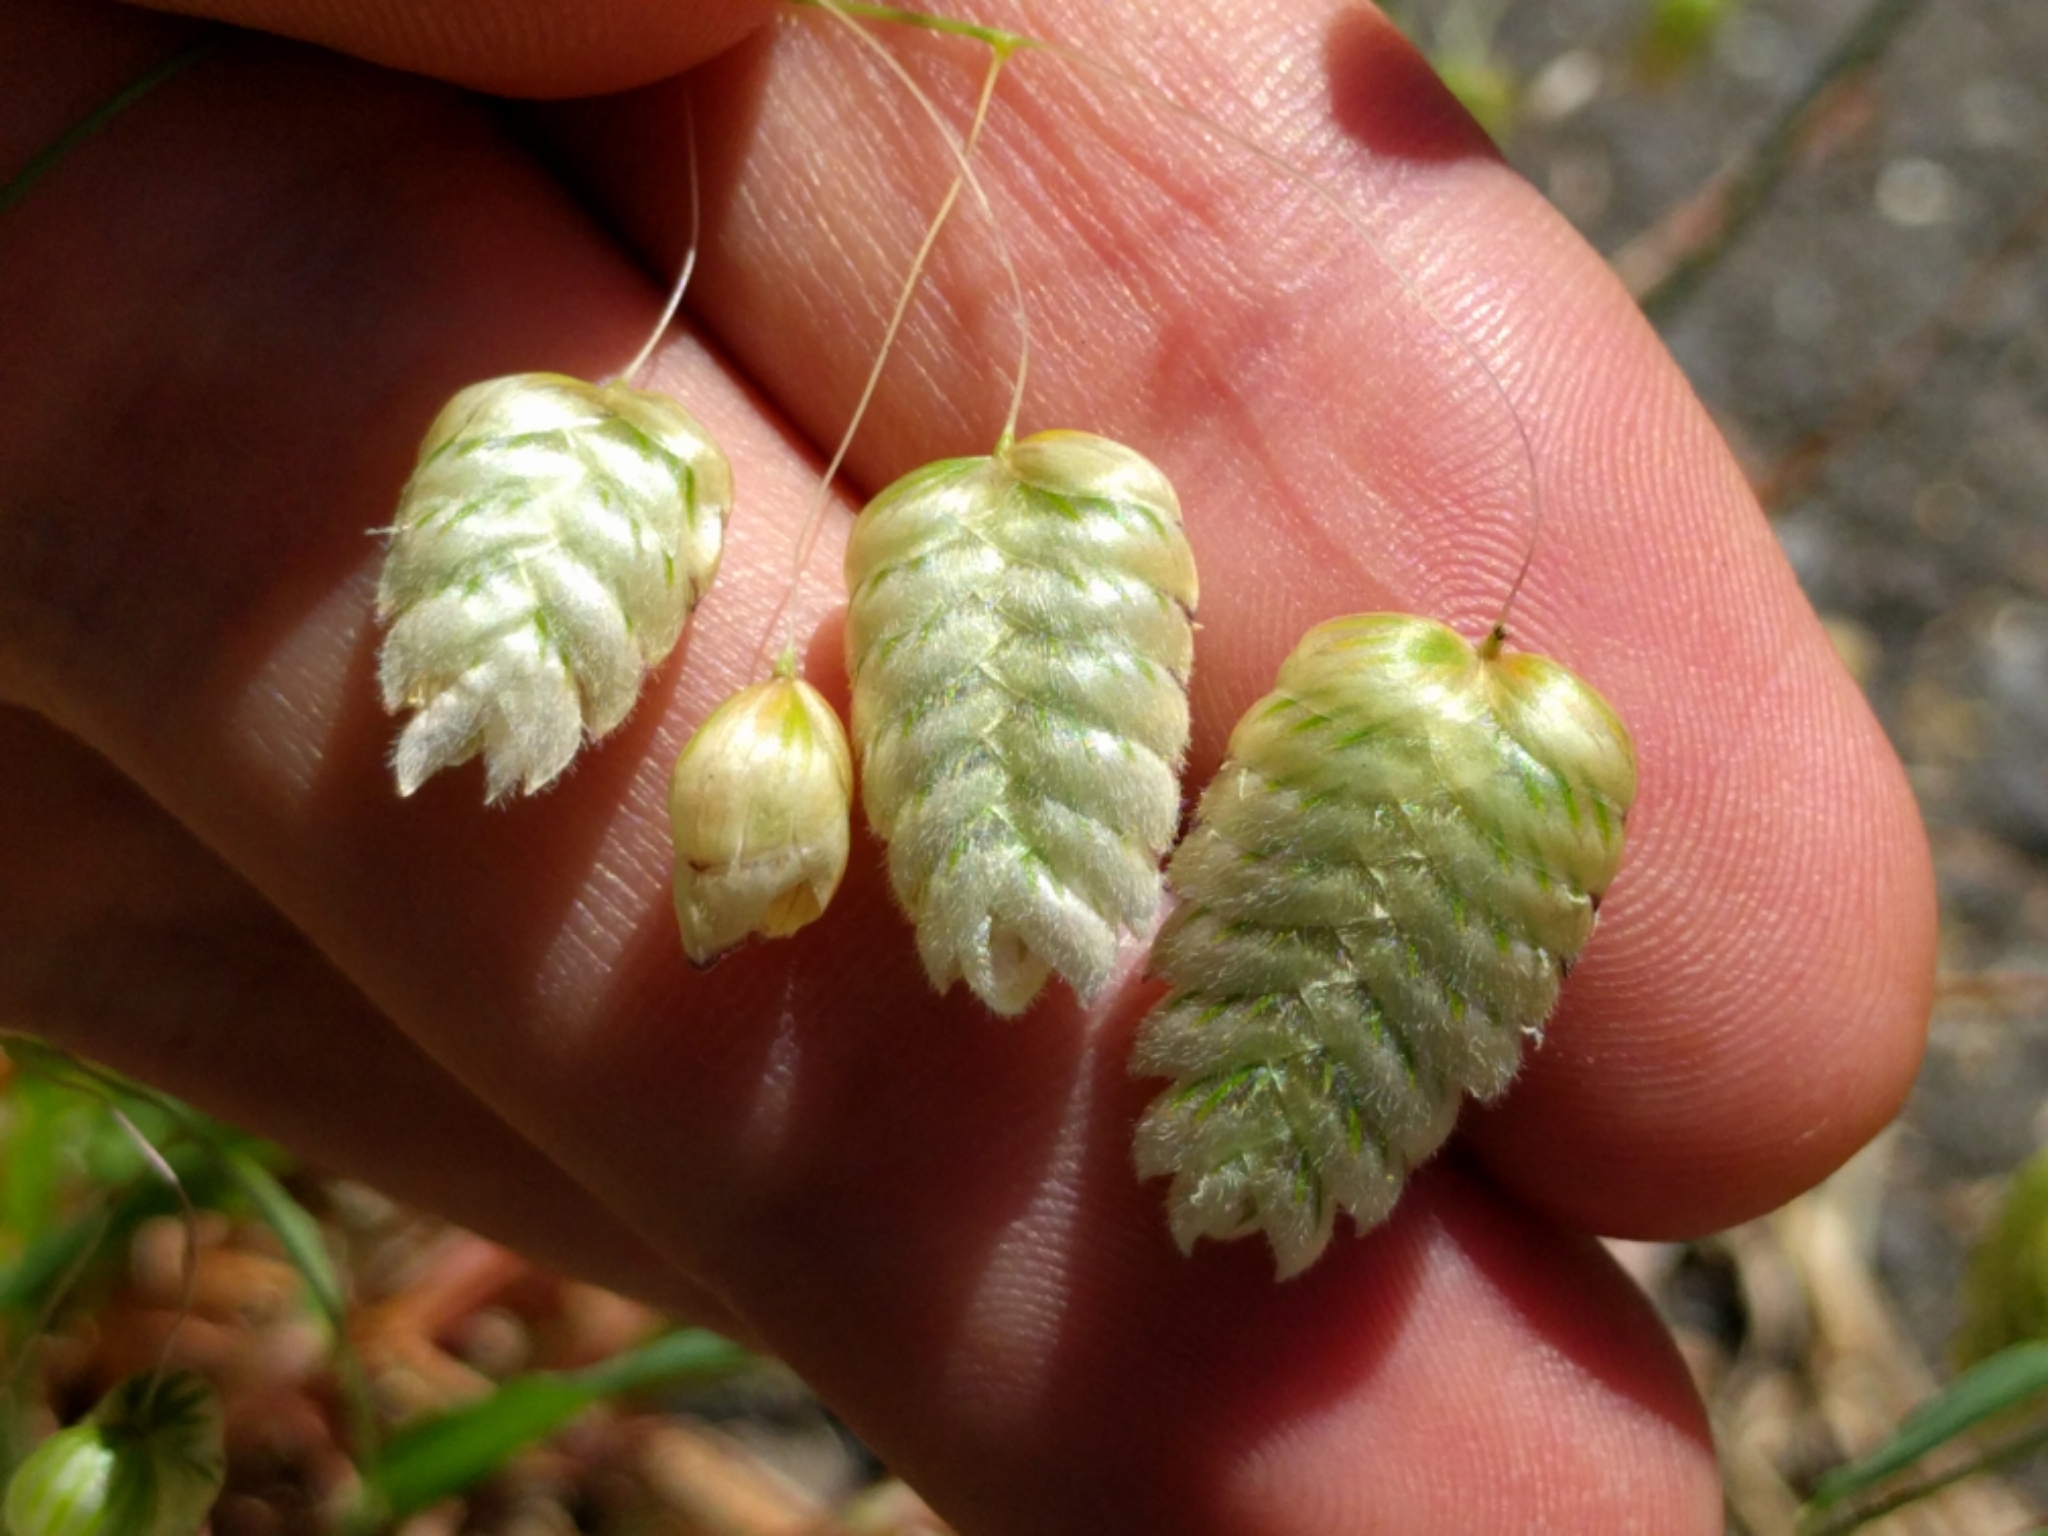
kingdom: Plantae
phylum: Tracheophyta
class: Liliopsida
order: Poales
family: Poaceae
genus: Briza
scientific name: Briza maxima
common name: Big quakinggrass
